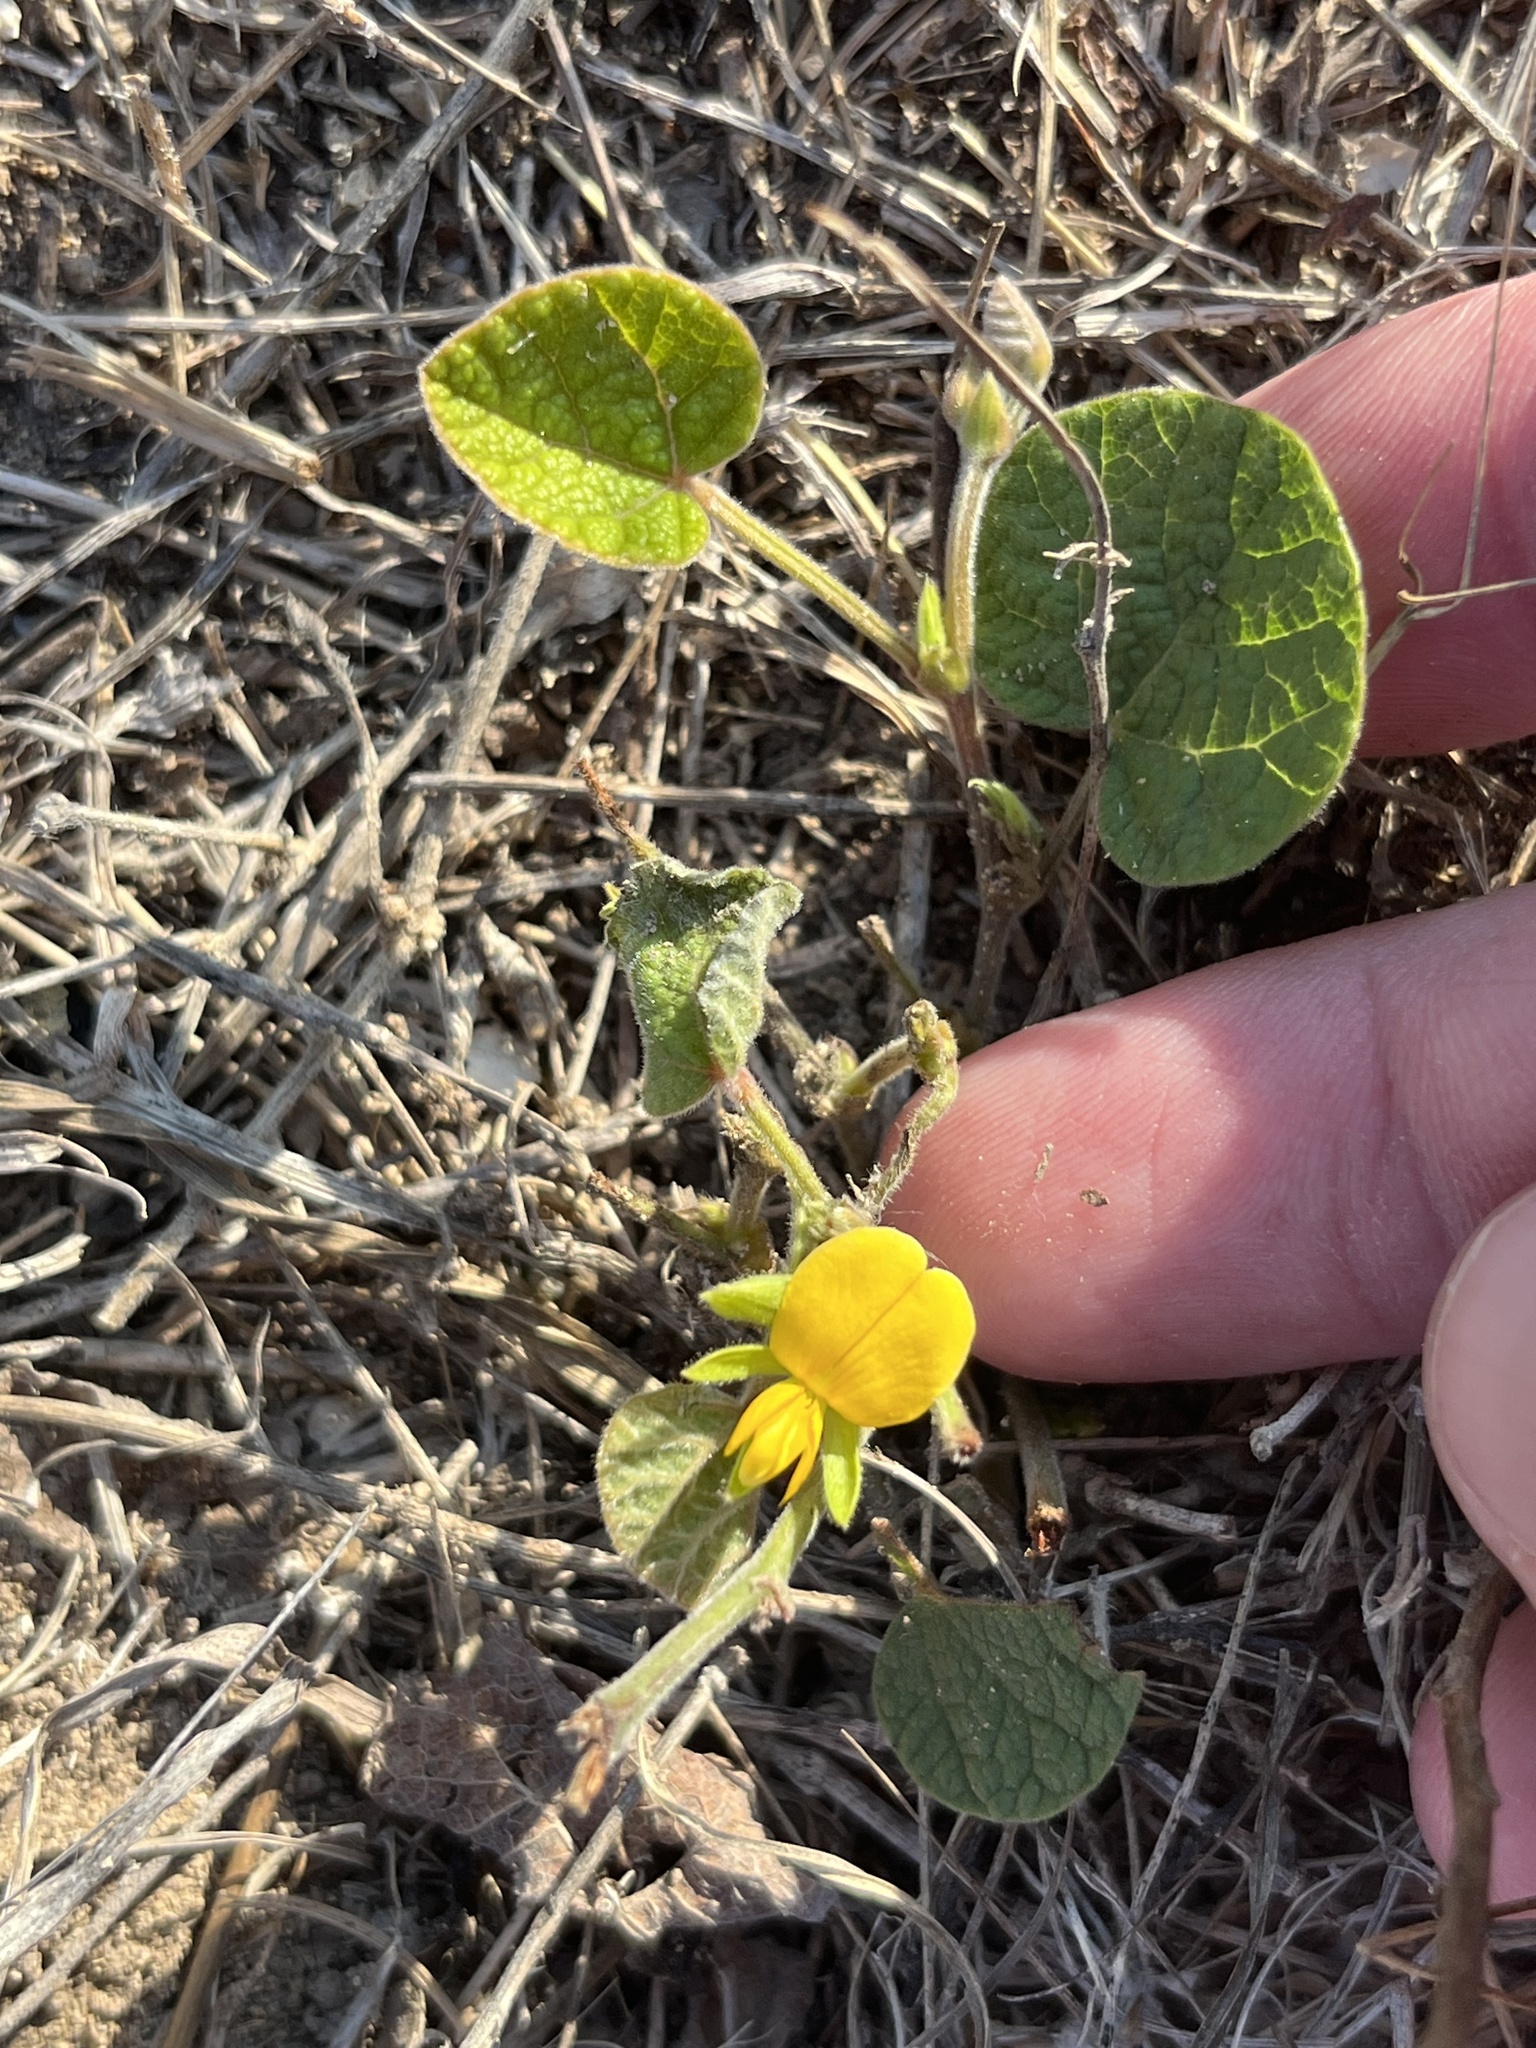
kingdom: Plantae
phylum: Tracheophyta
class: Magnoliopsida
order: Fabales
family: Fabaceae
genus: Rhynchosia
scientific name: Rhynchosia americana
